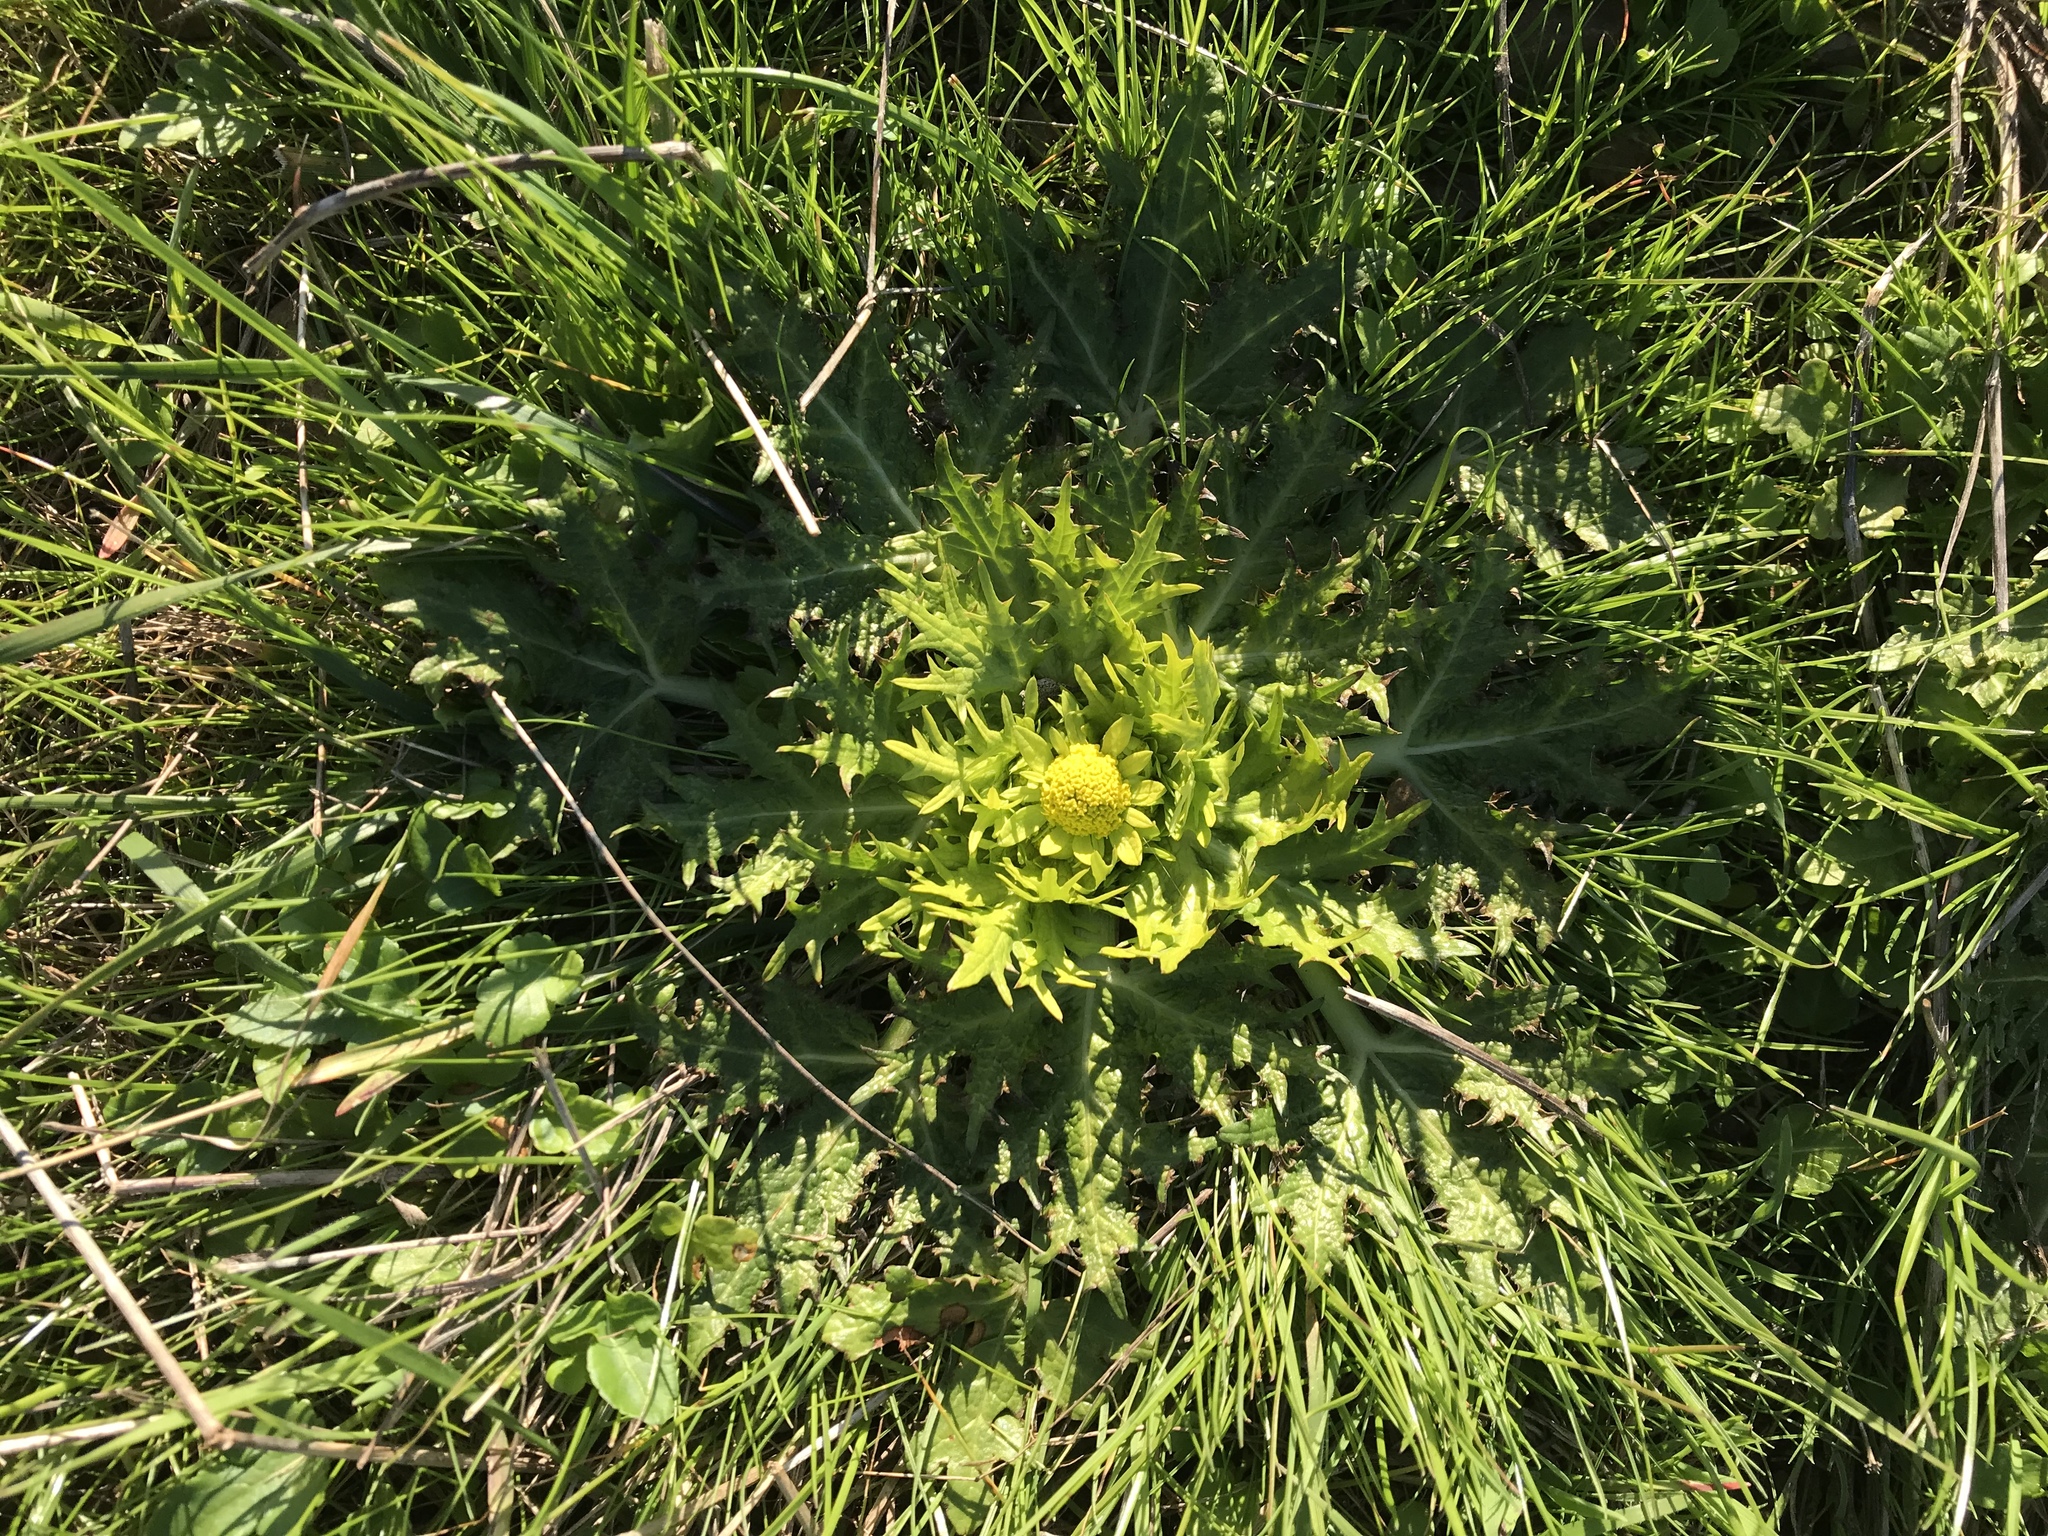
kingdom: Plantae
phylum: Tracheophyta
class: Magnoliopsida
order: Apiales
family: Apiaceae
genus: Sanicula
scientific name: Sanicula arctopoides
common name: Footsteps-of-spring
